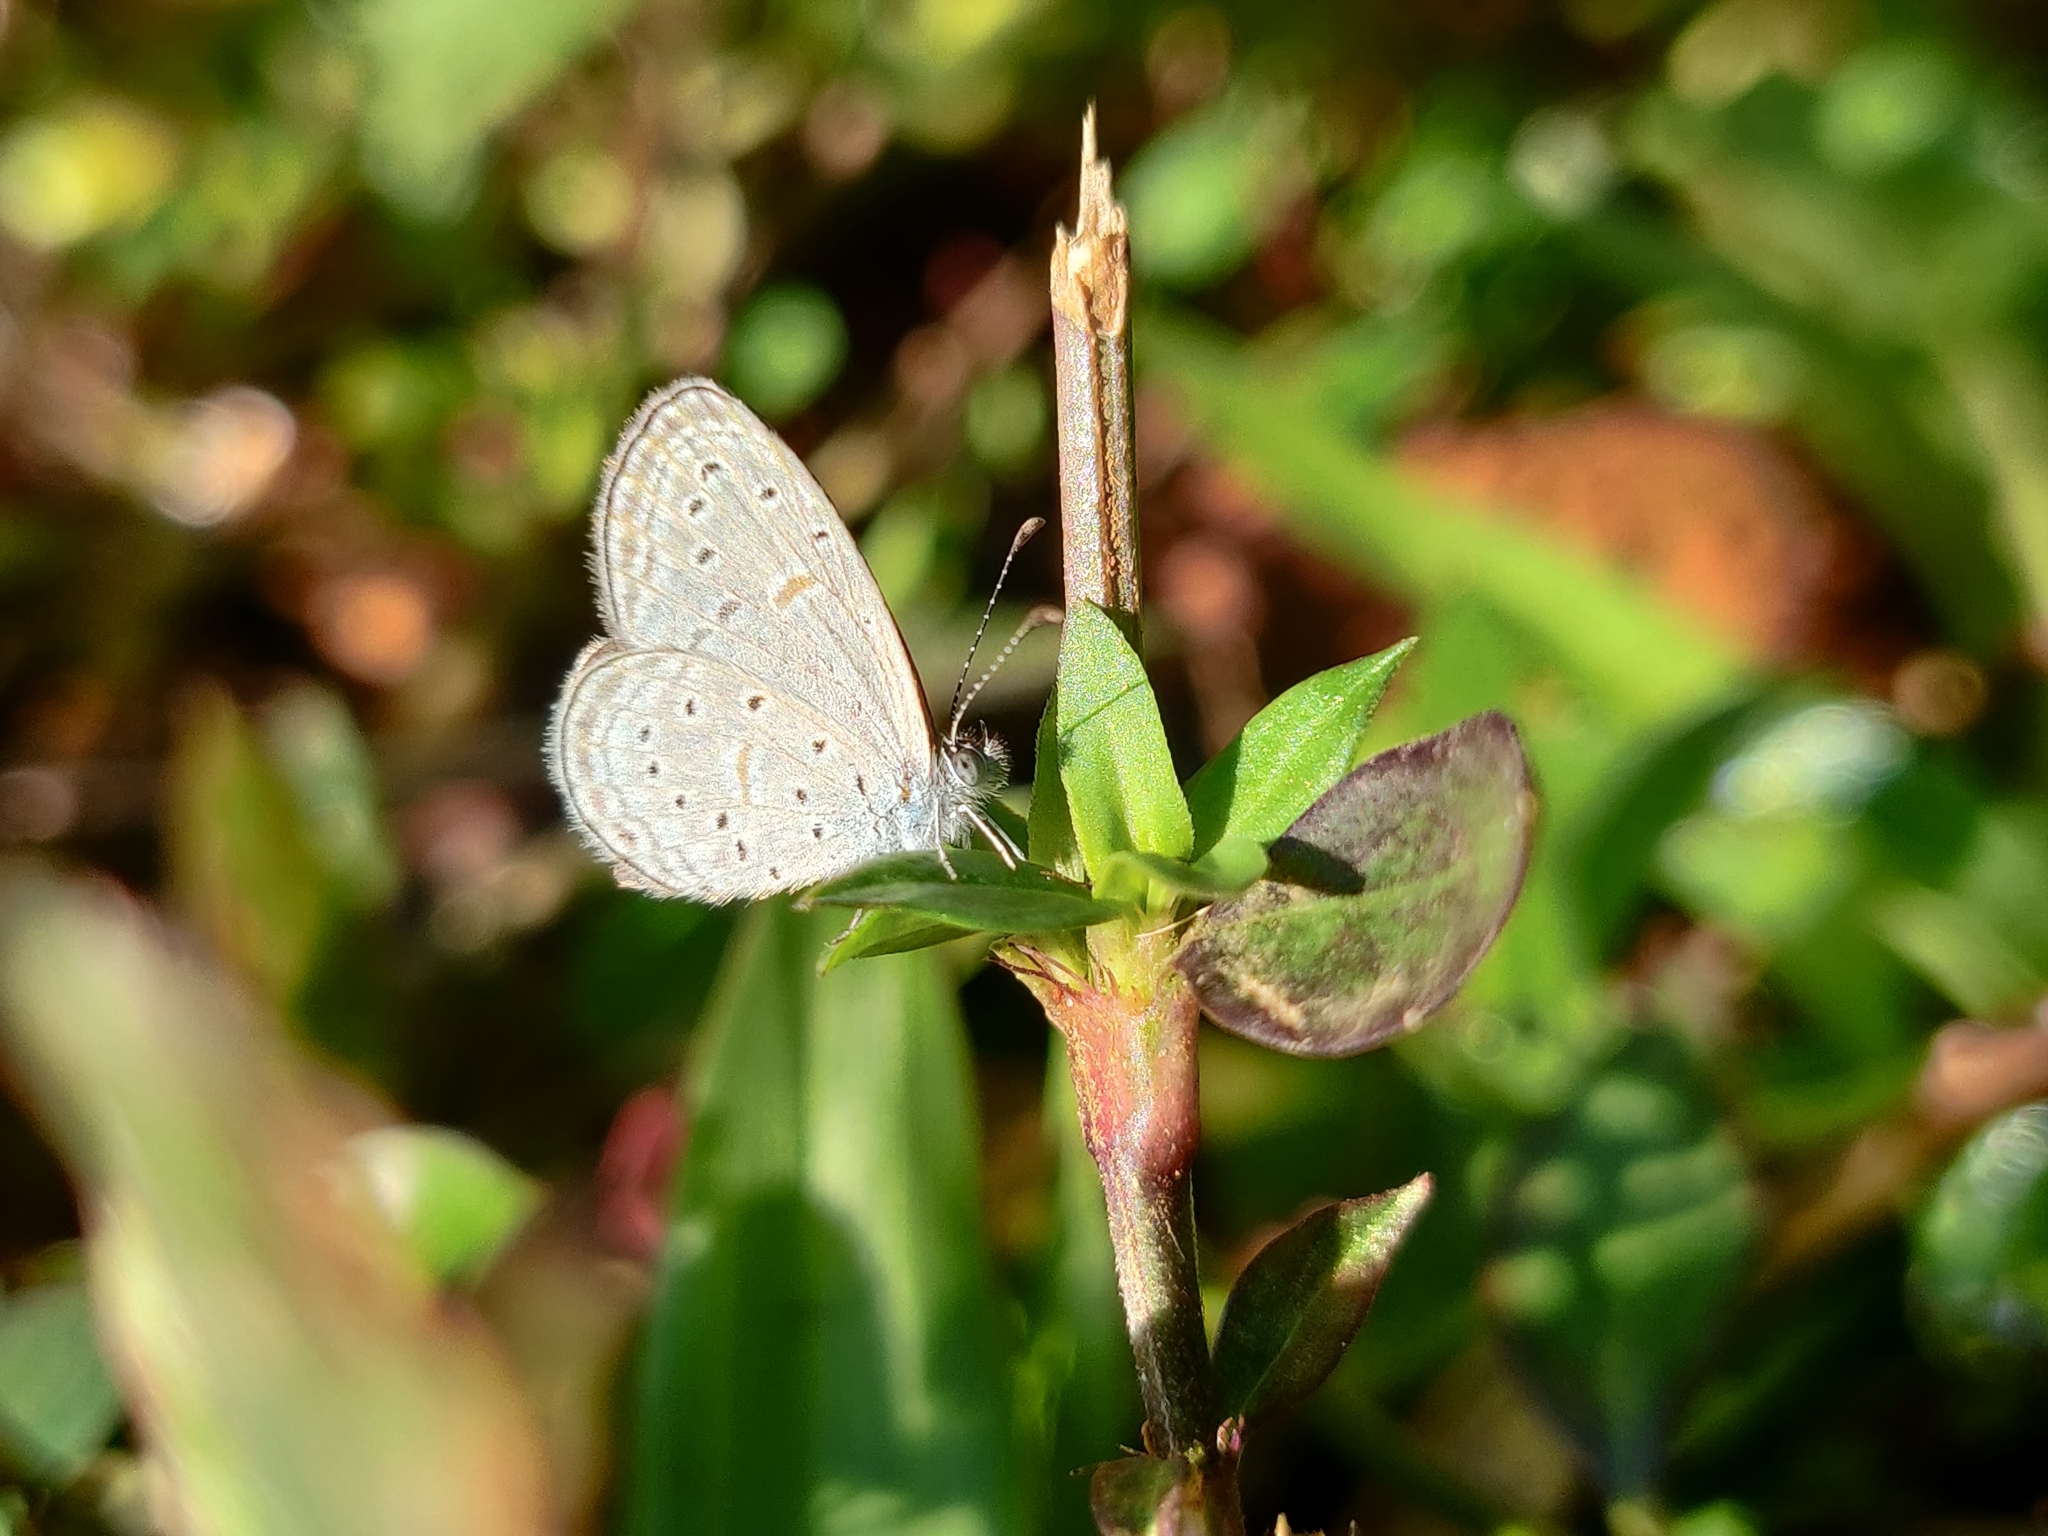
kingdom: Animalia
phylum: Arthropoda
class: Insecta
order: Lepidoptera
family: Lycaenidae
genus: Zizula
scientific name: Zizula hylax
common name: Gaika blue
